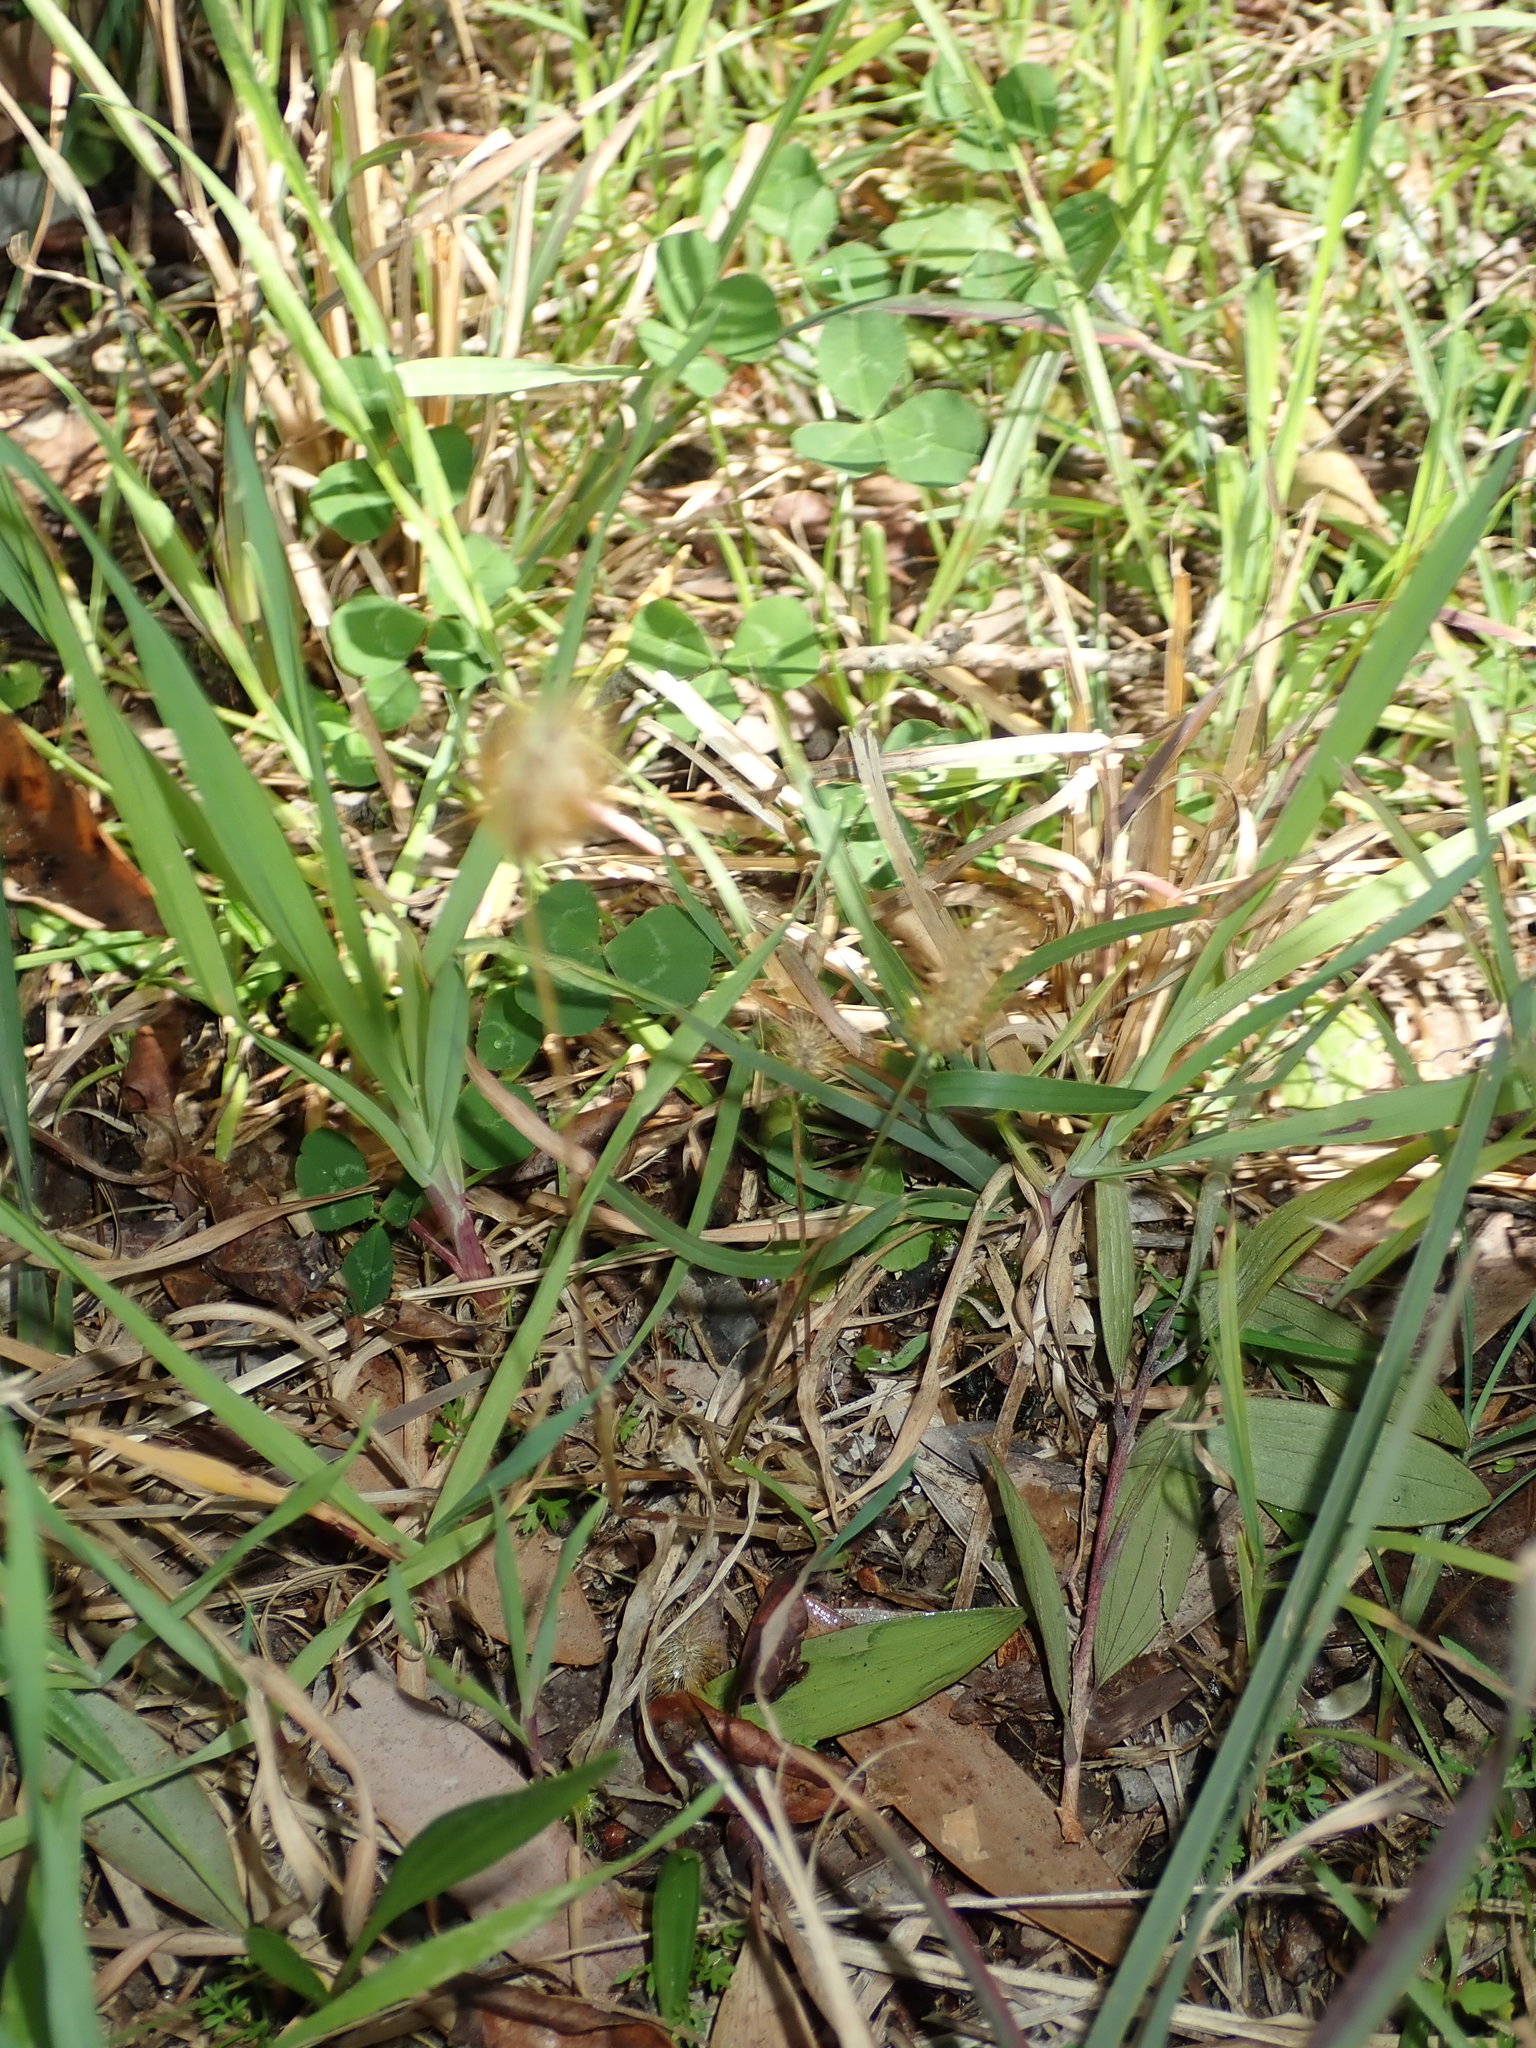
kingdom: Plantae
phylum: Tracheophyta
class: Liliopsida
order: Poales
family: Poaceae
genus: Setaria
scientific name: Setaria pumila
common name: Yellow bristle-grass
